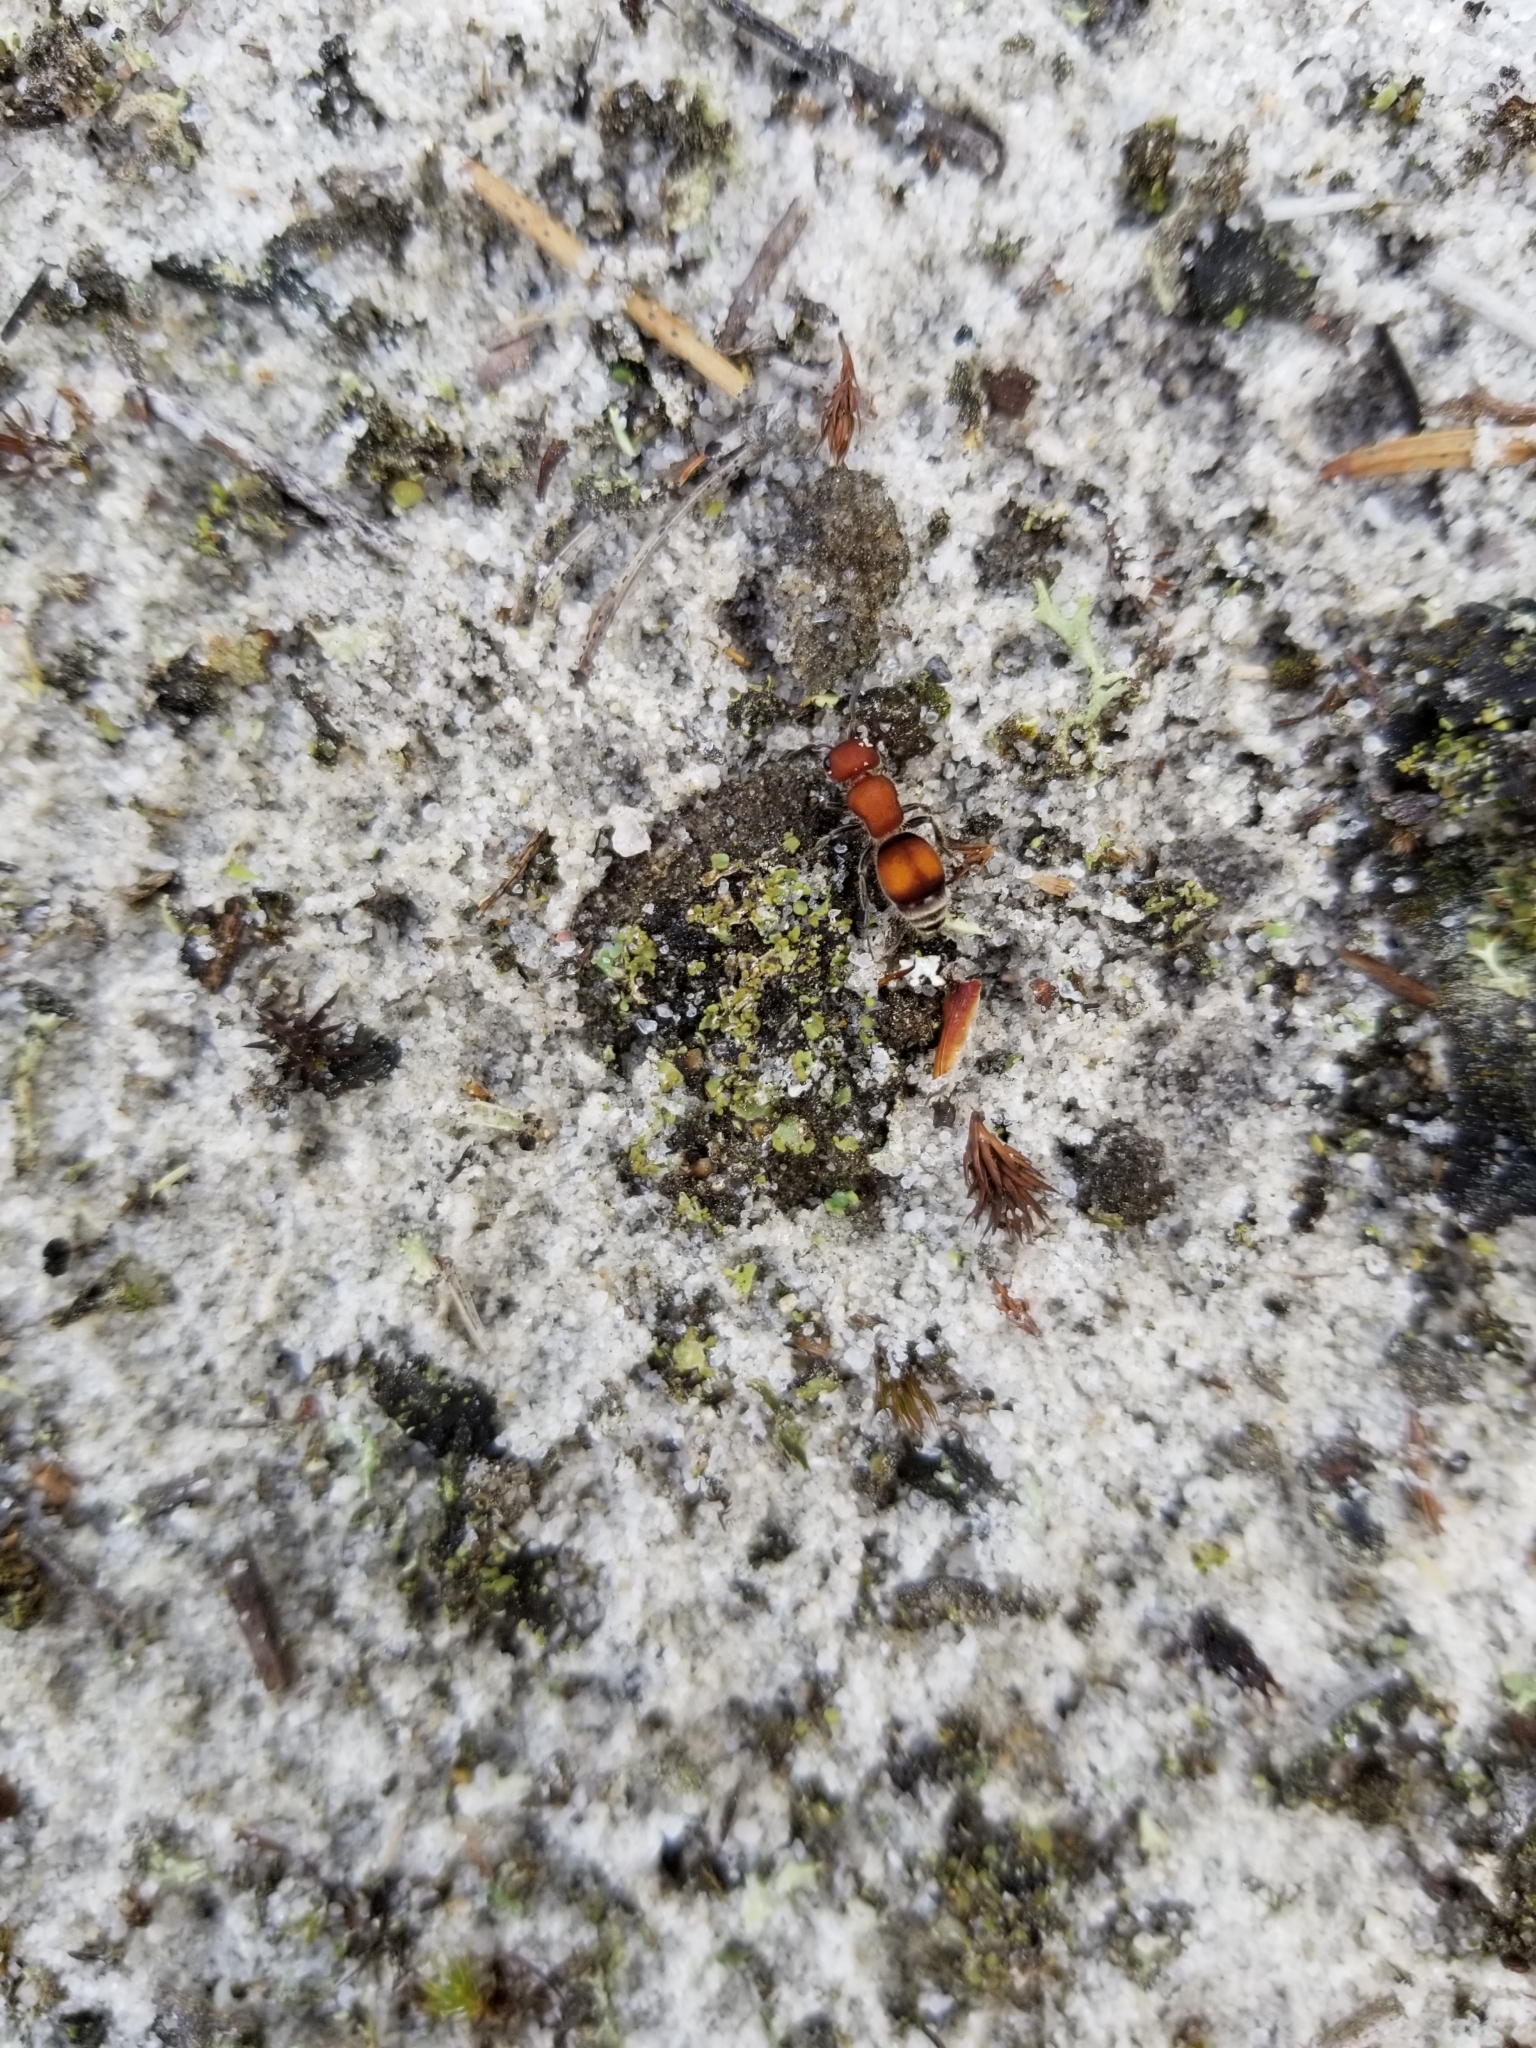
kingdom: Animalia
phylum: Arthropoda
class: Insecta
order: Hymenoptera
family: Mutillidae
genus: Pseudomethoca
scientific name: Pseudomethoca
